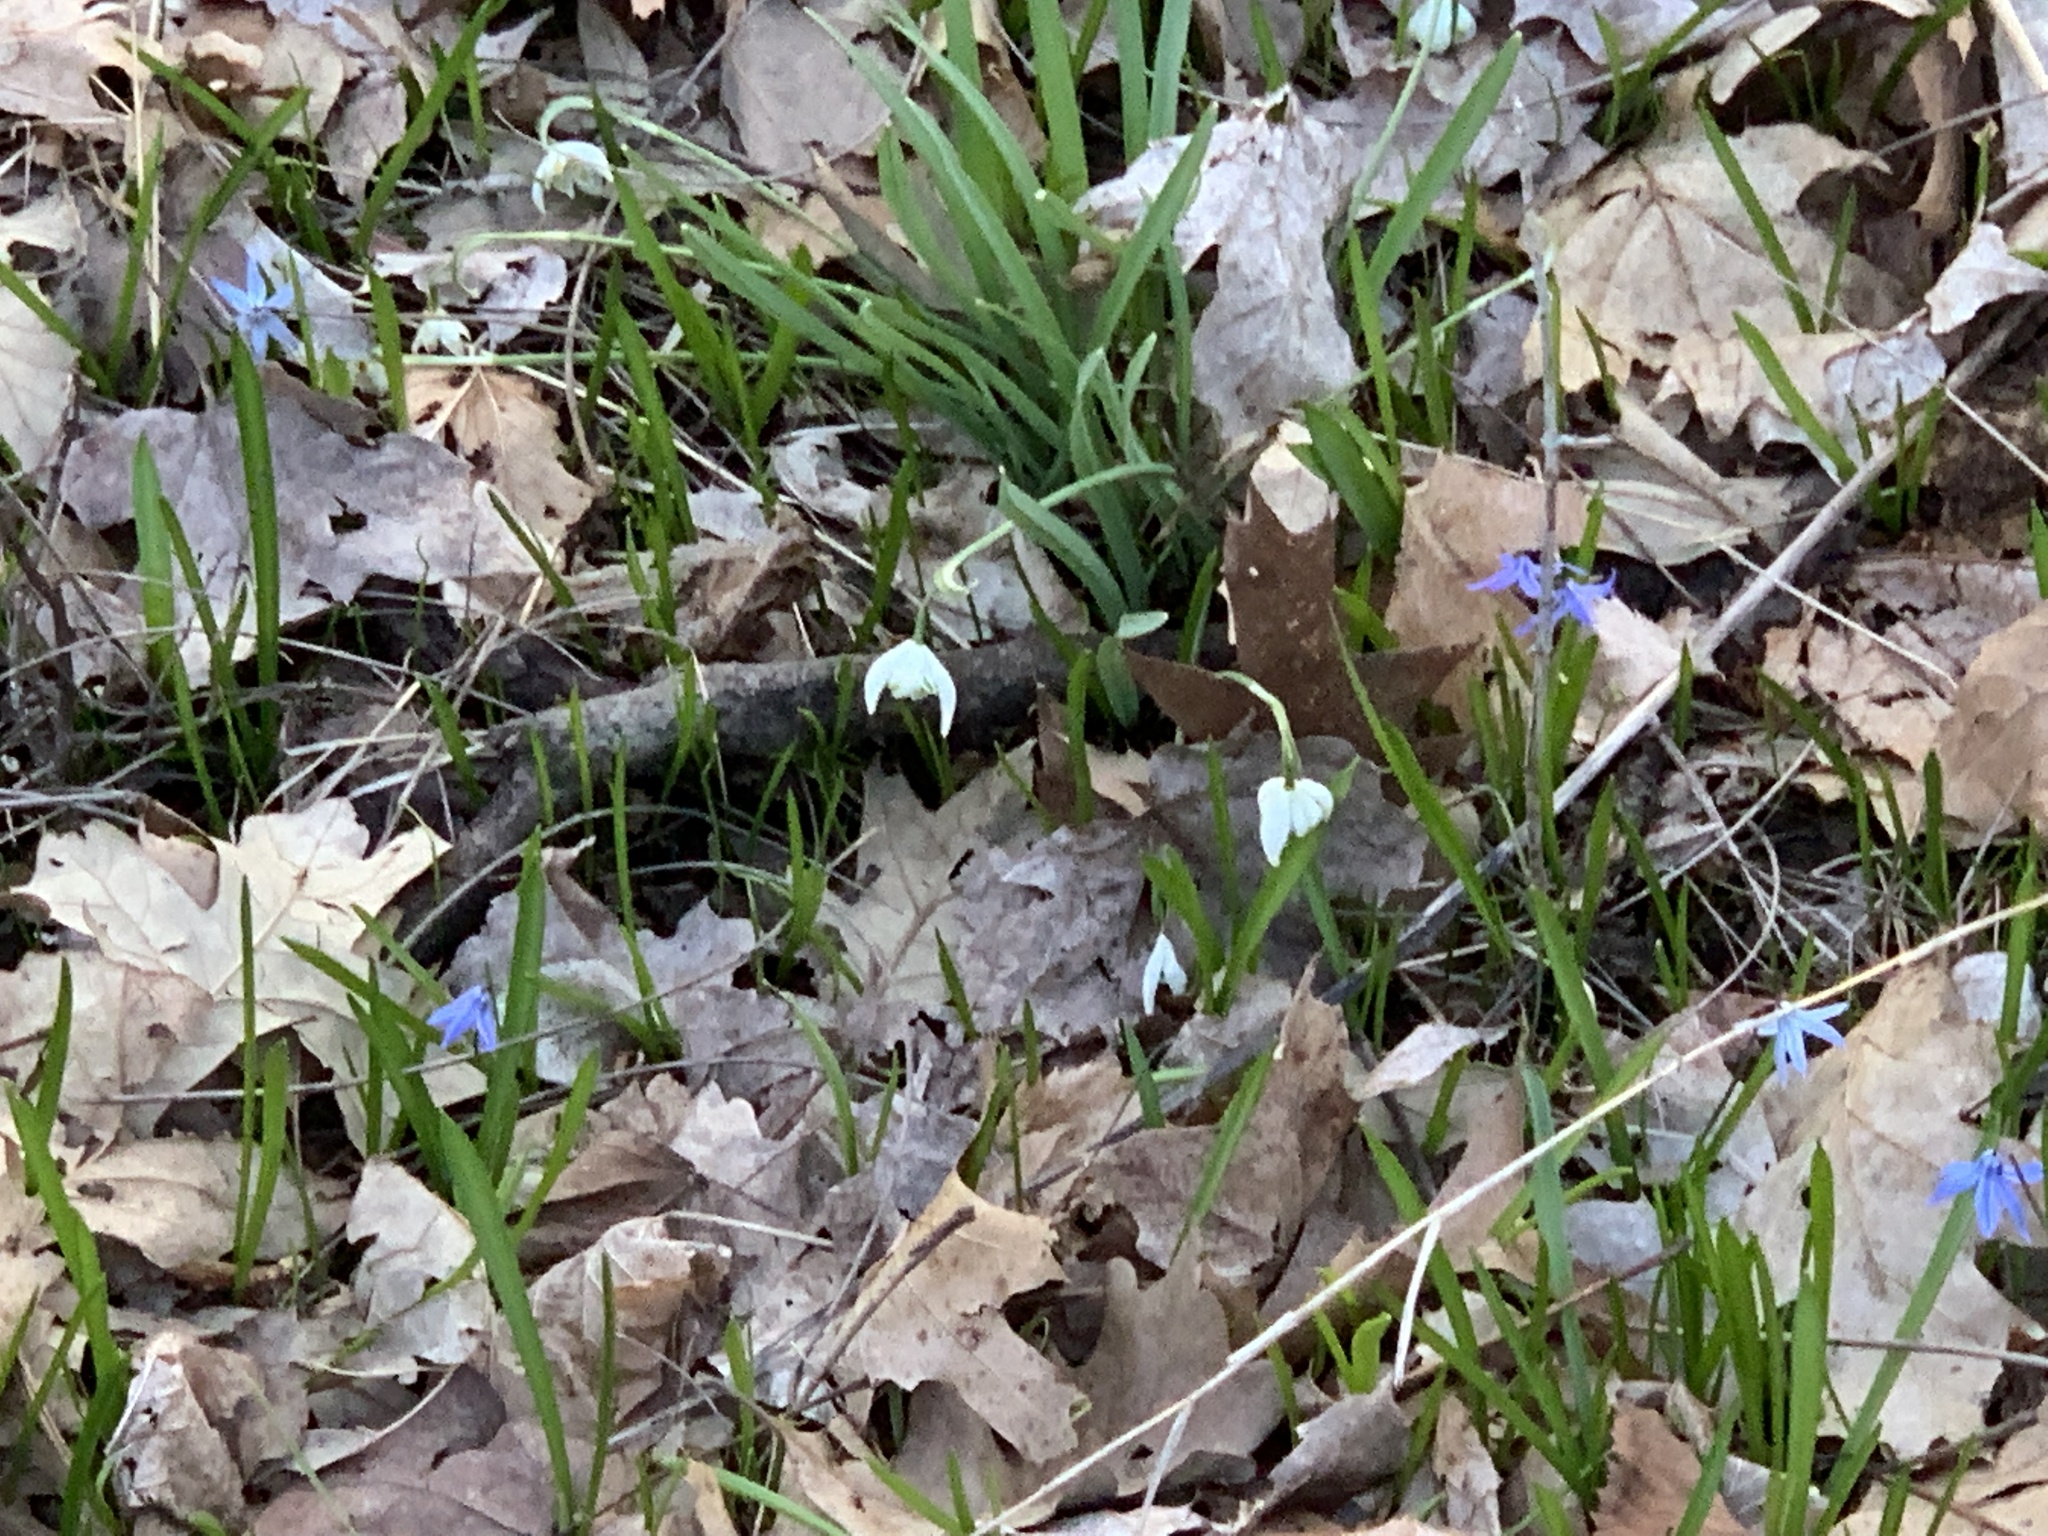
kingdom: Plantae
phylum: Tracheophyta
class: Liliopsida
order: Asparagales
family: Amaryllidaceae
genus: Galanthus
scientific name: Galanthus nivalis
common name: Snowdrop
